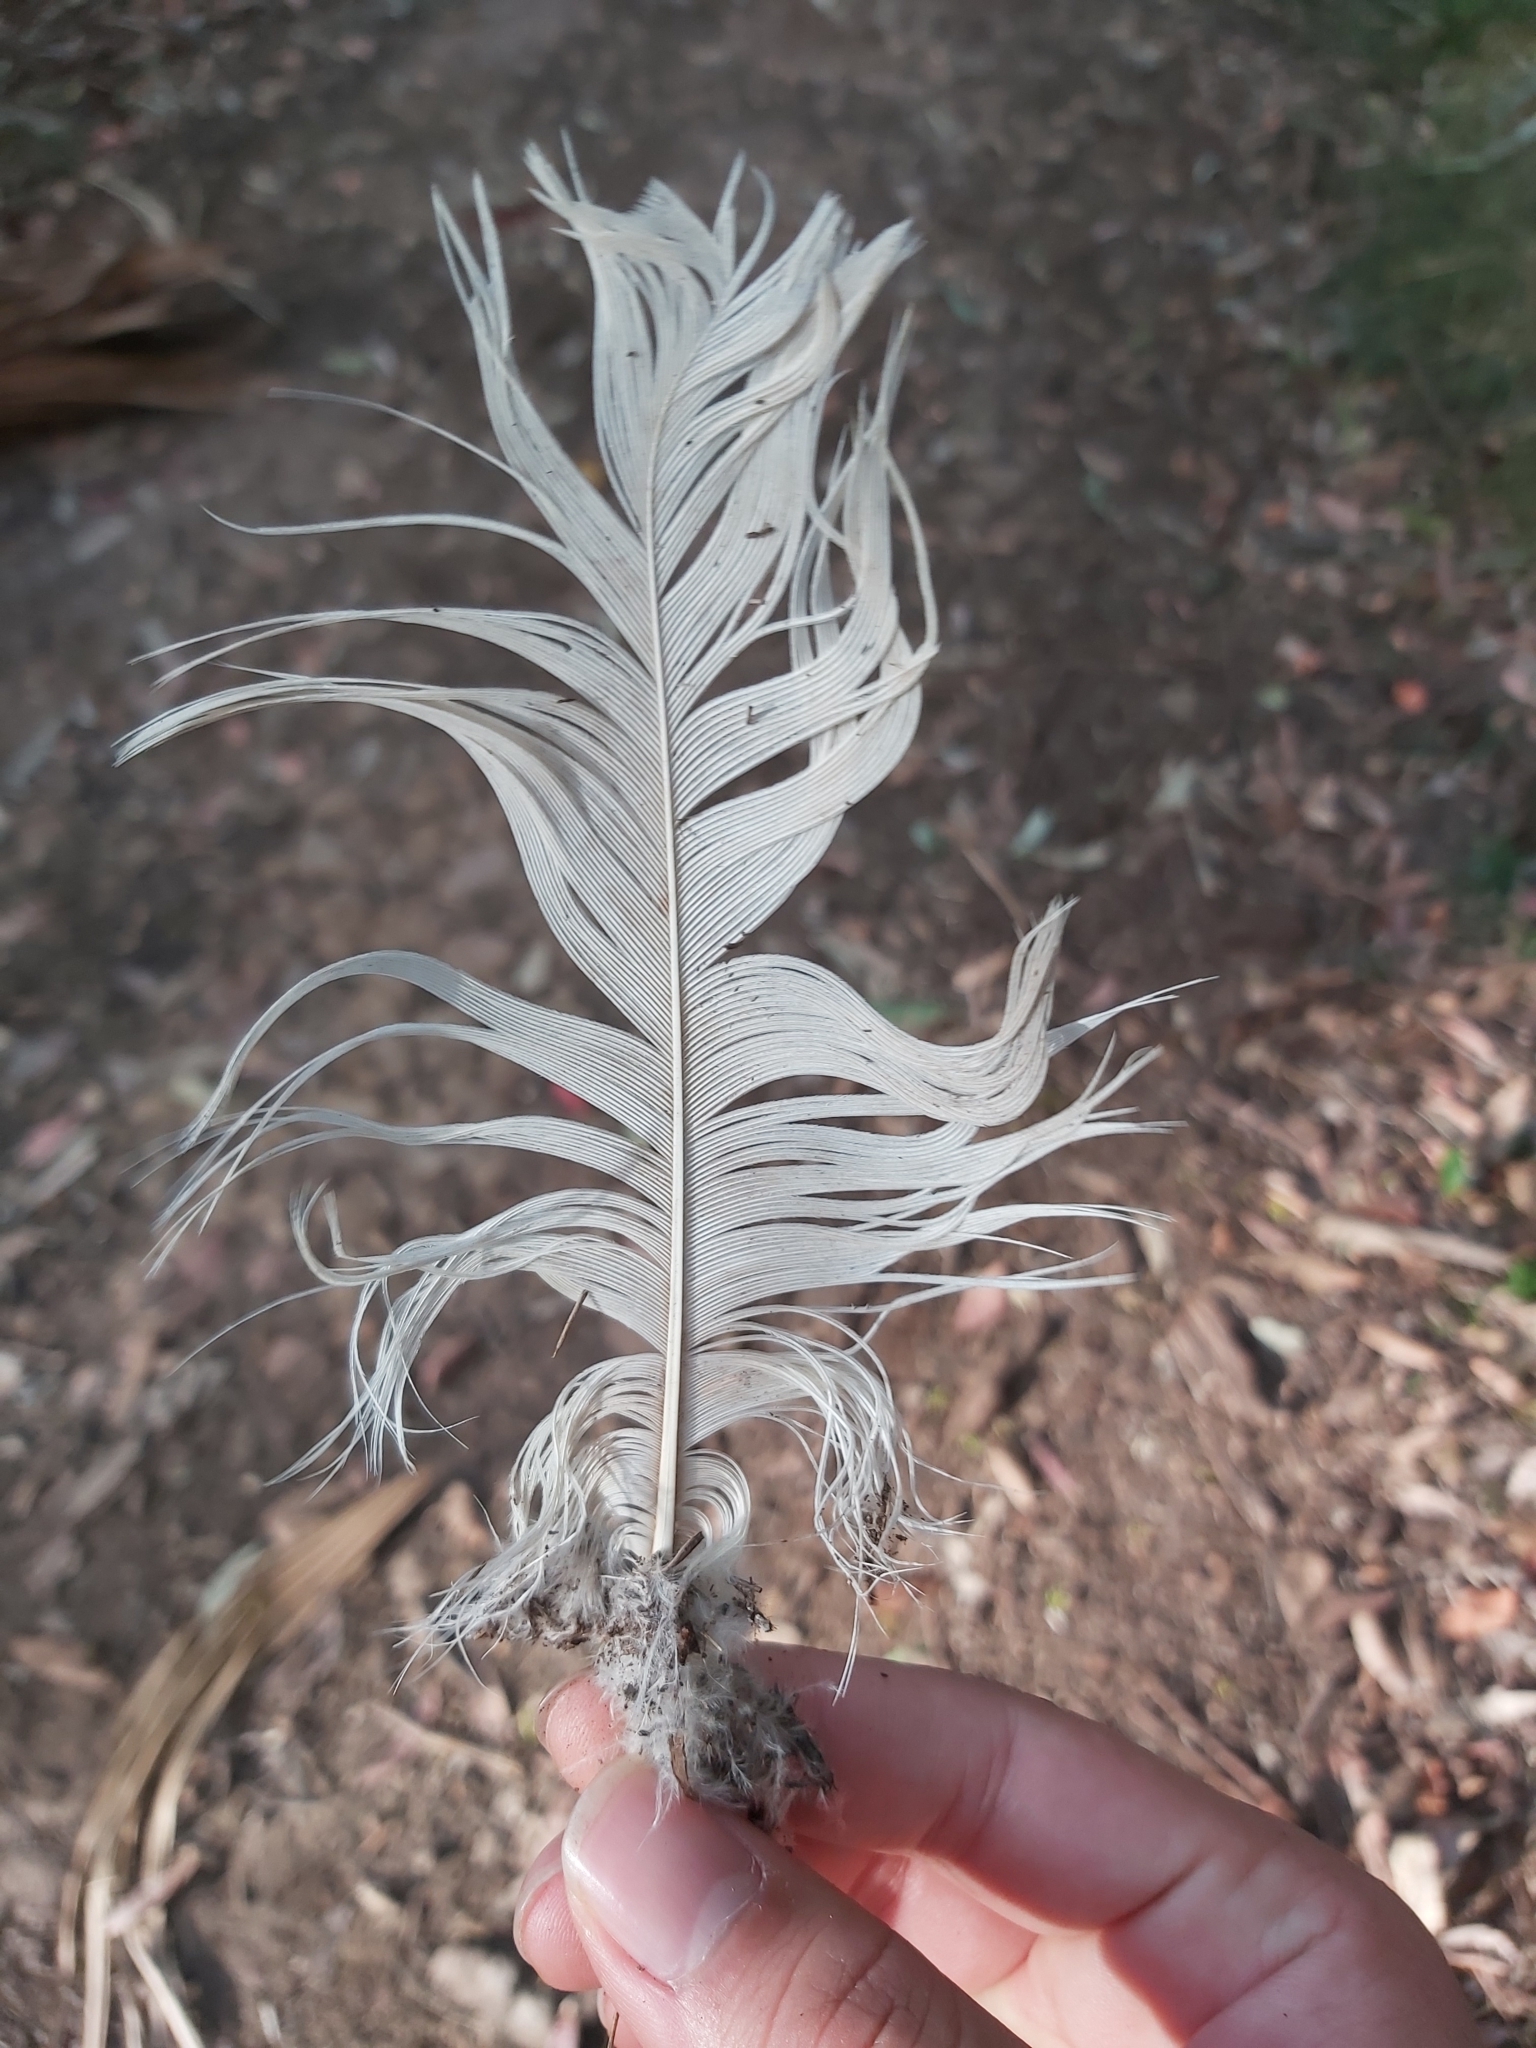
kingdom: Animalia
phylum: Chordata
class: Aves
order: Psittaciformes
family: Psittacidae
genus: Cacatua
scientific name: Cacatua galerita
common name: Sulphur-crested cockatoo
